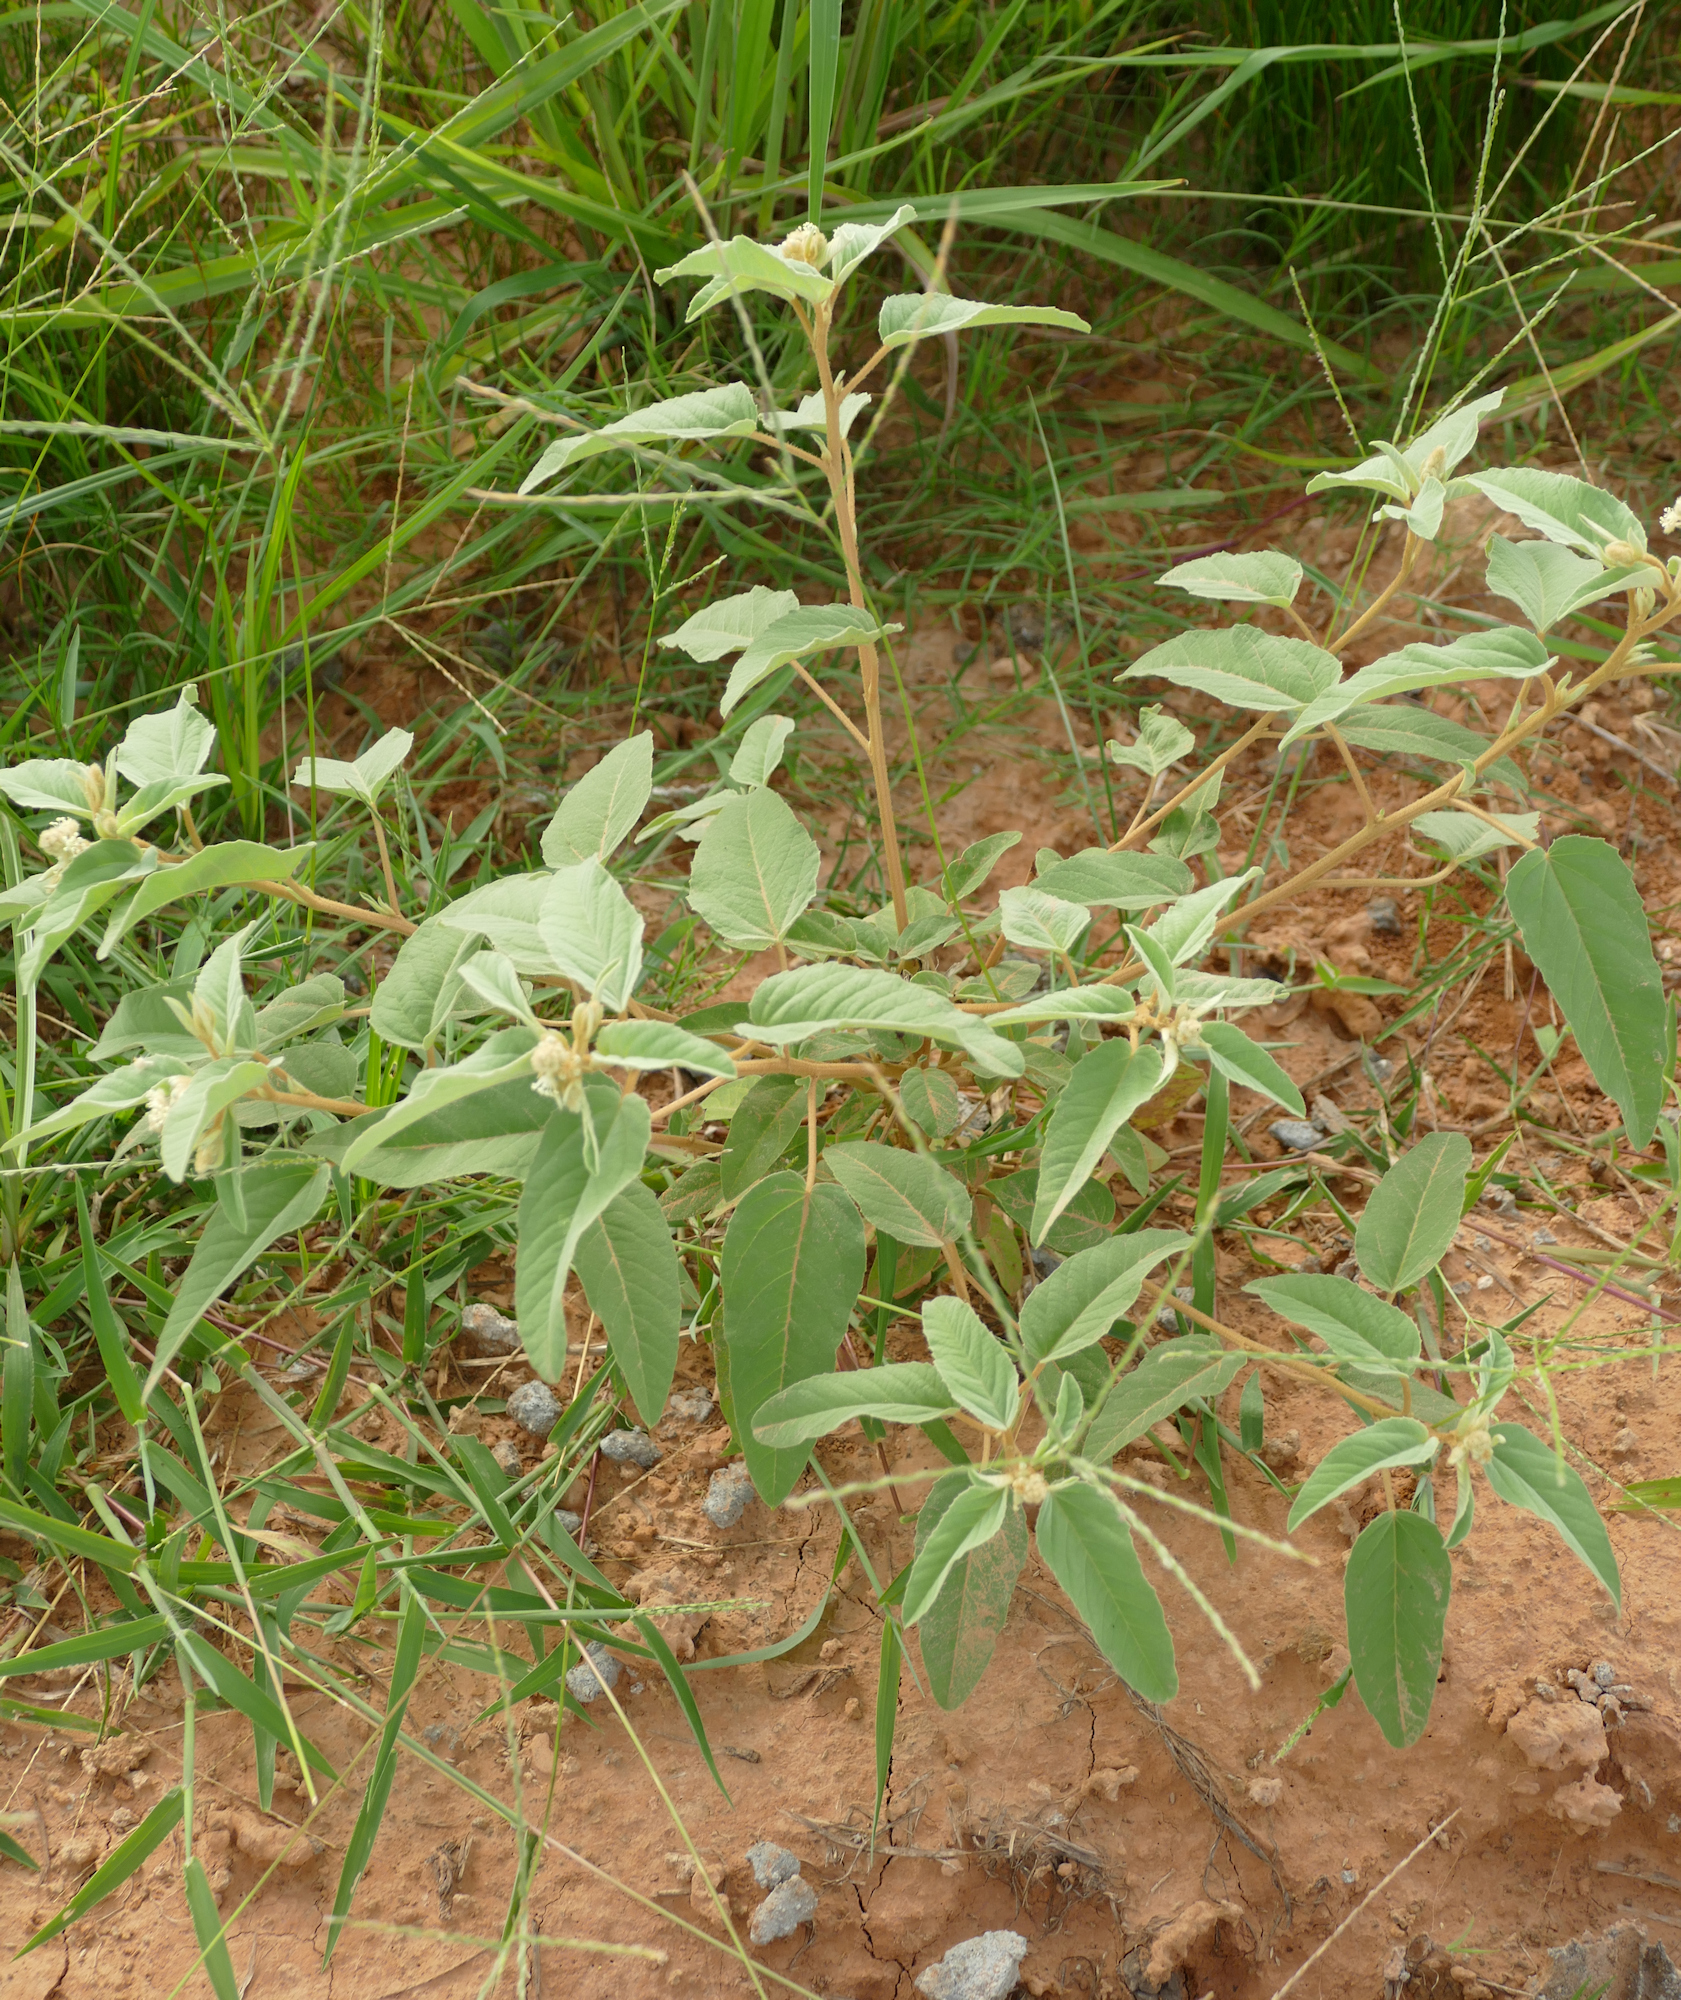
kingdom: Plantae
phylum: Tracheophyta
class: Magnoliopsida
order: Malpighiales
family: Euphorbiaceae
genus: Croton
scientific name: Croton lindheimeri
